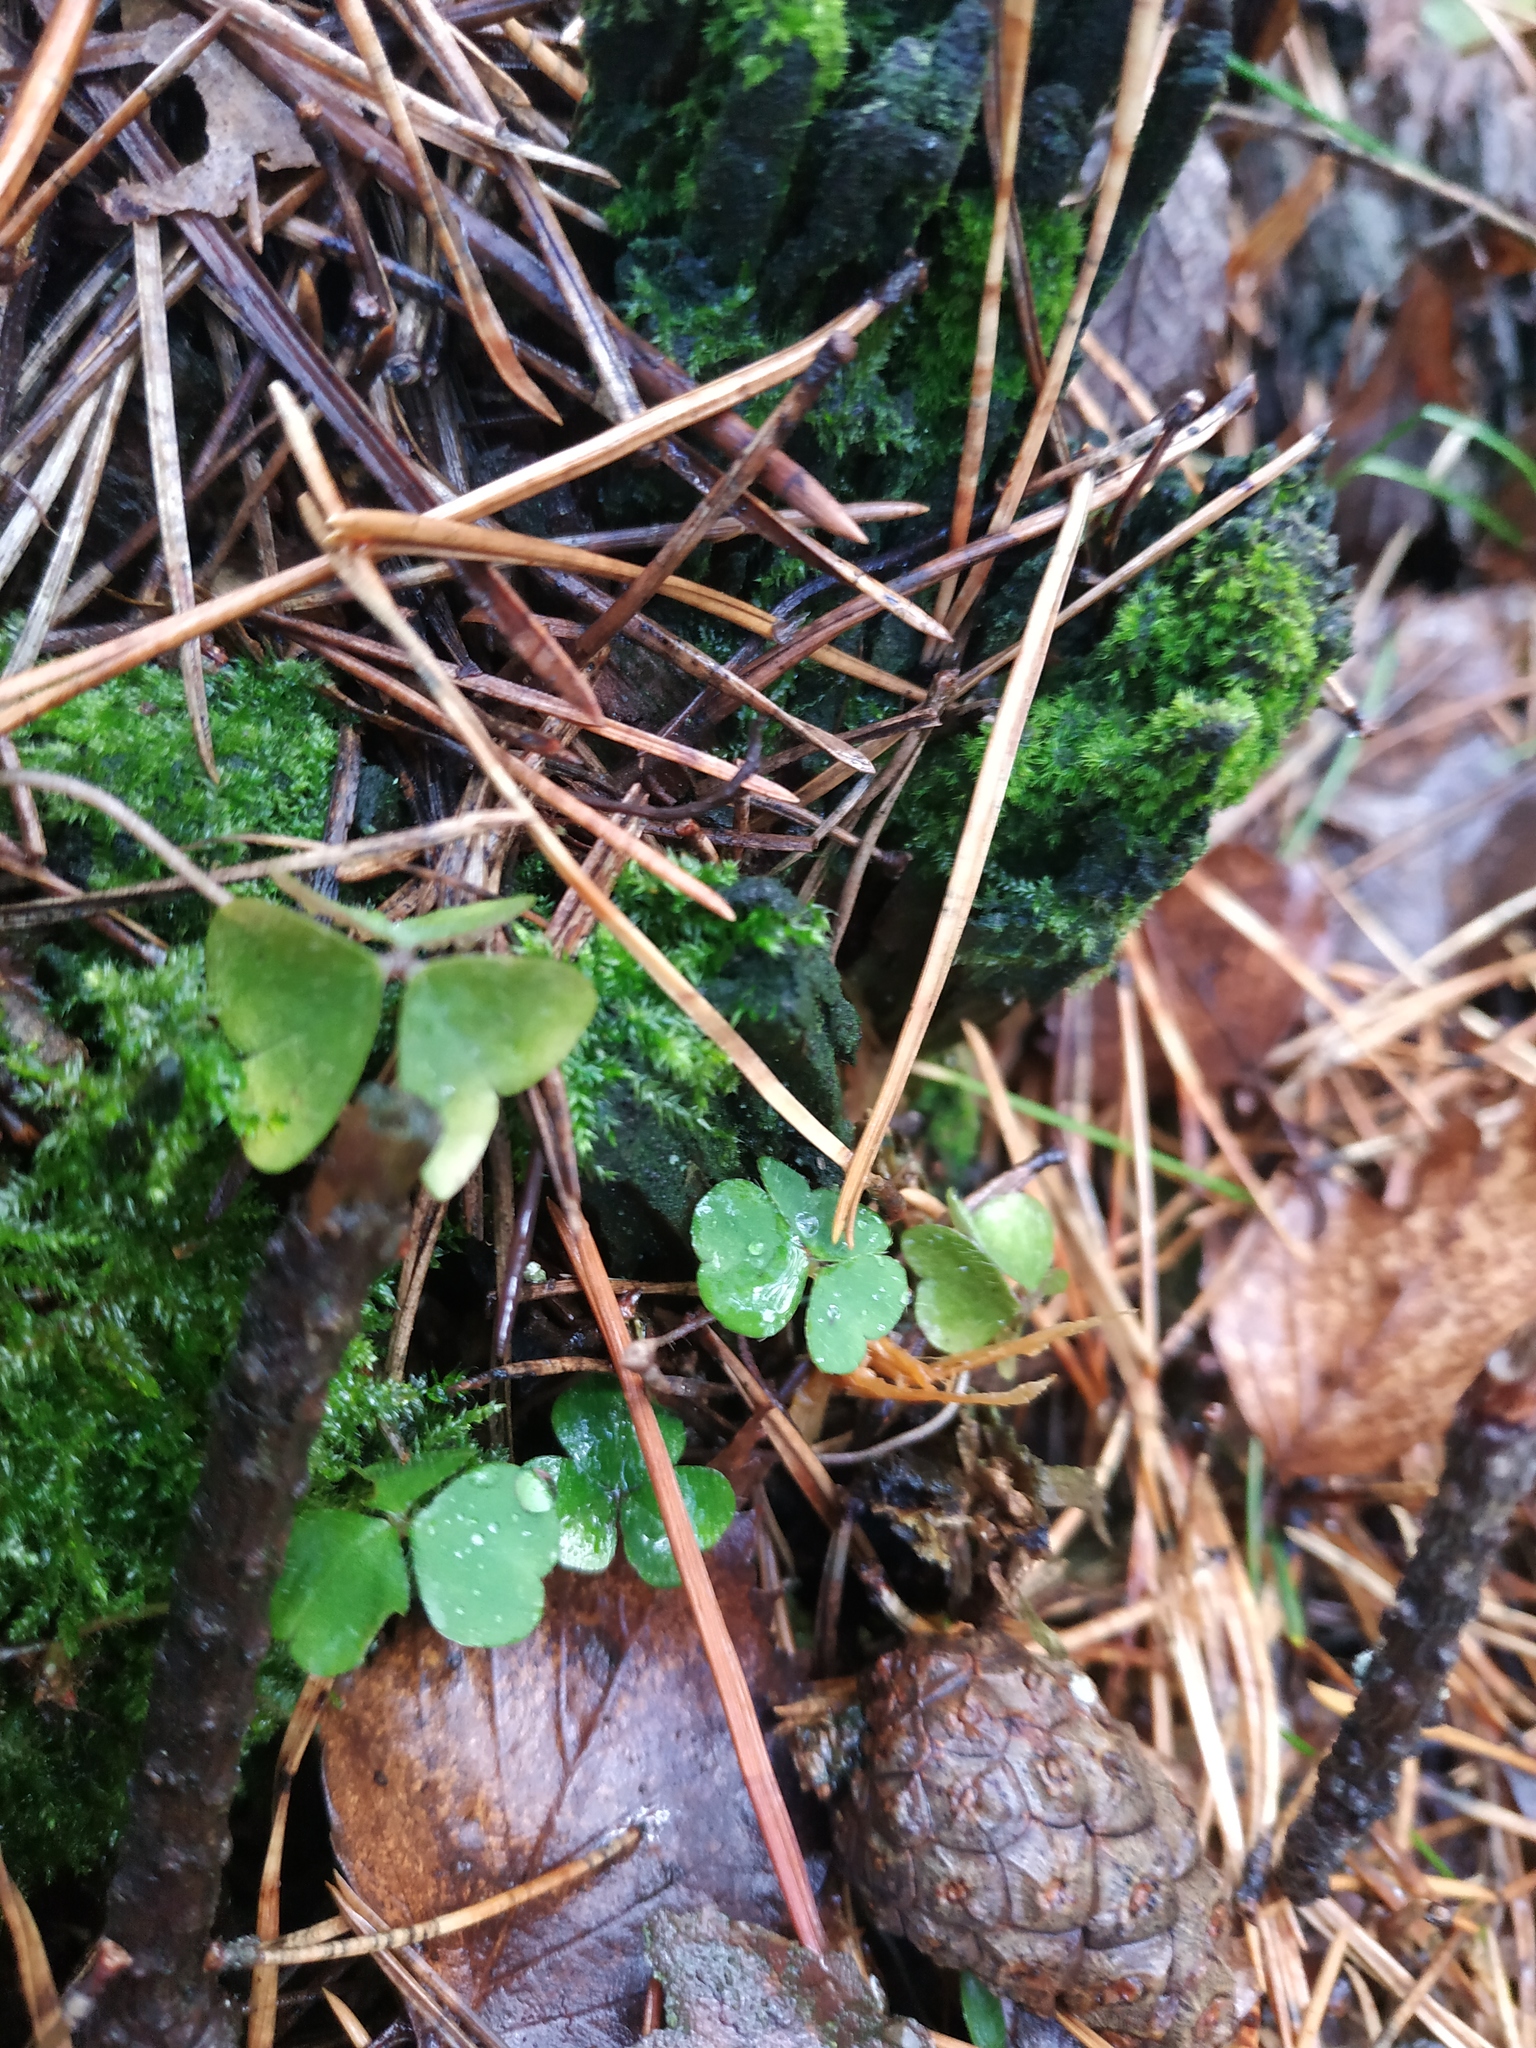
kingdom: Plantae
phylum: Tracheophyta
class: Magnoliopsida
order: Oxalidales
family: Oxalidaceae
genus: Oxalis
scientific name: Oxalis acetosella
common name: Wood-sorrel
